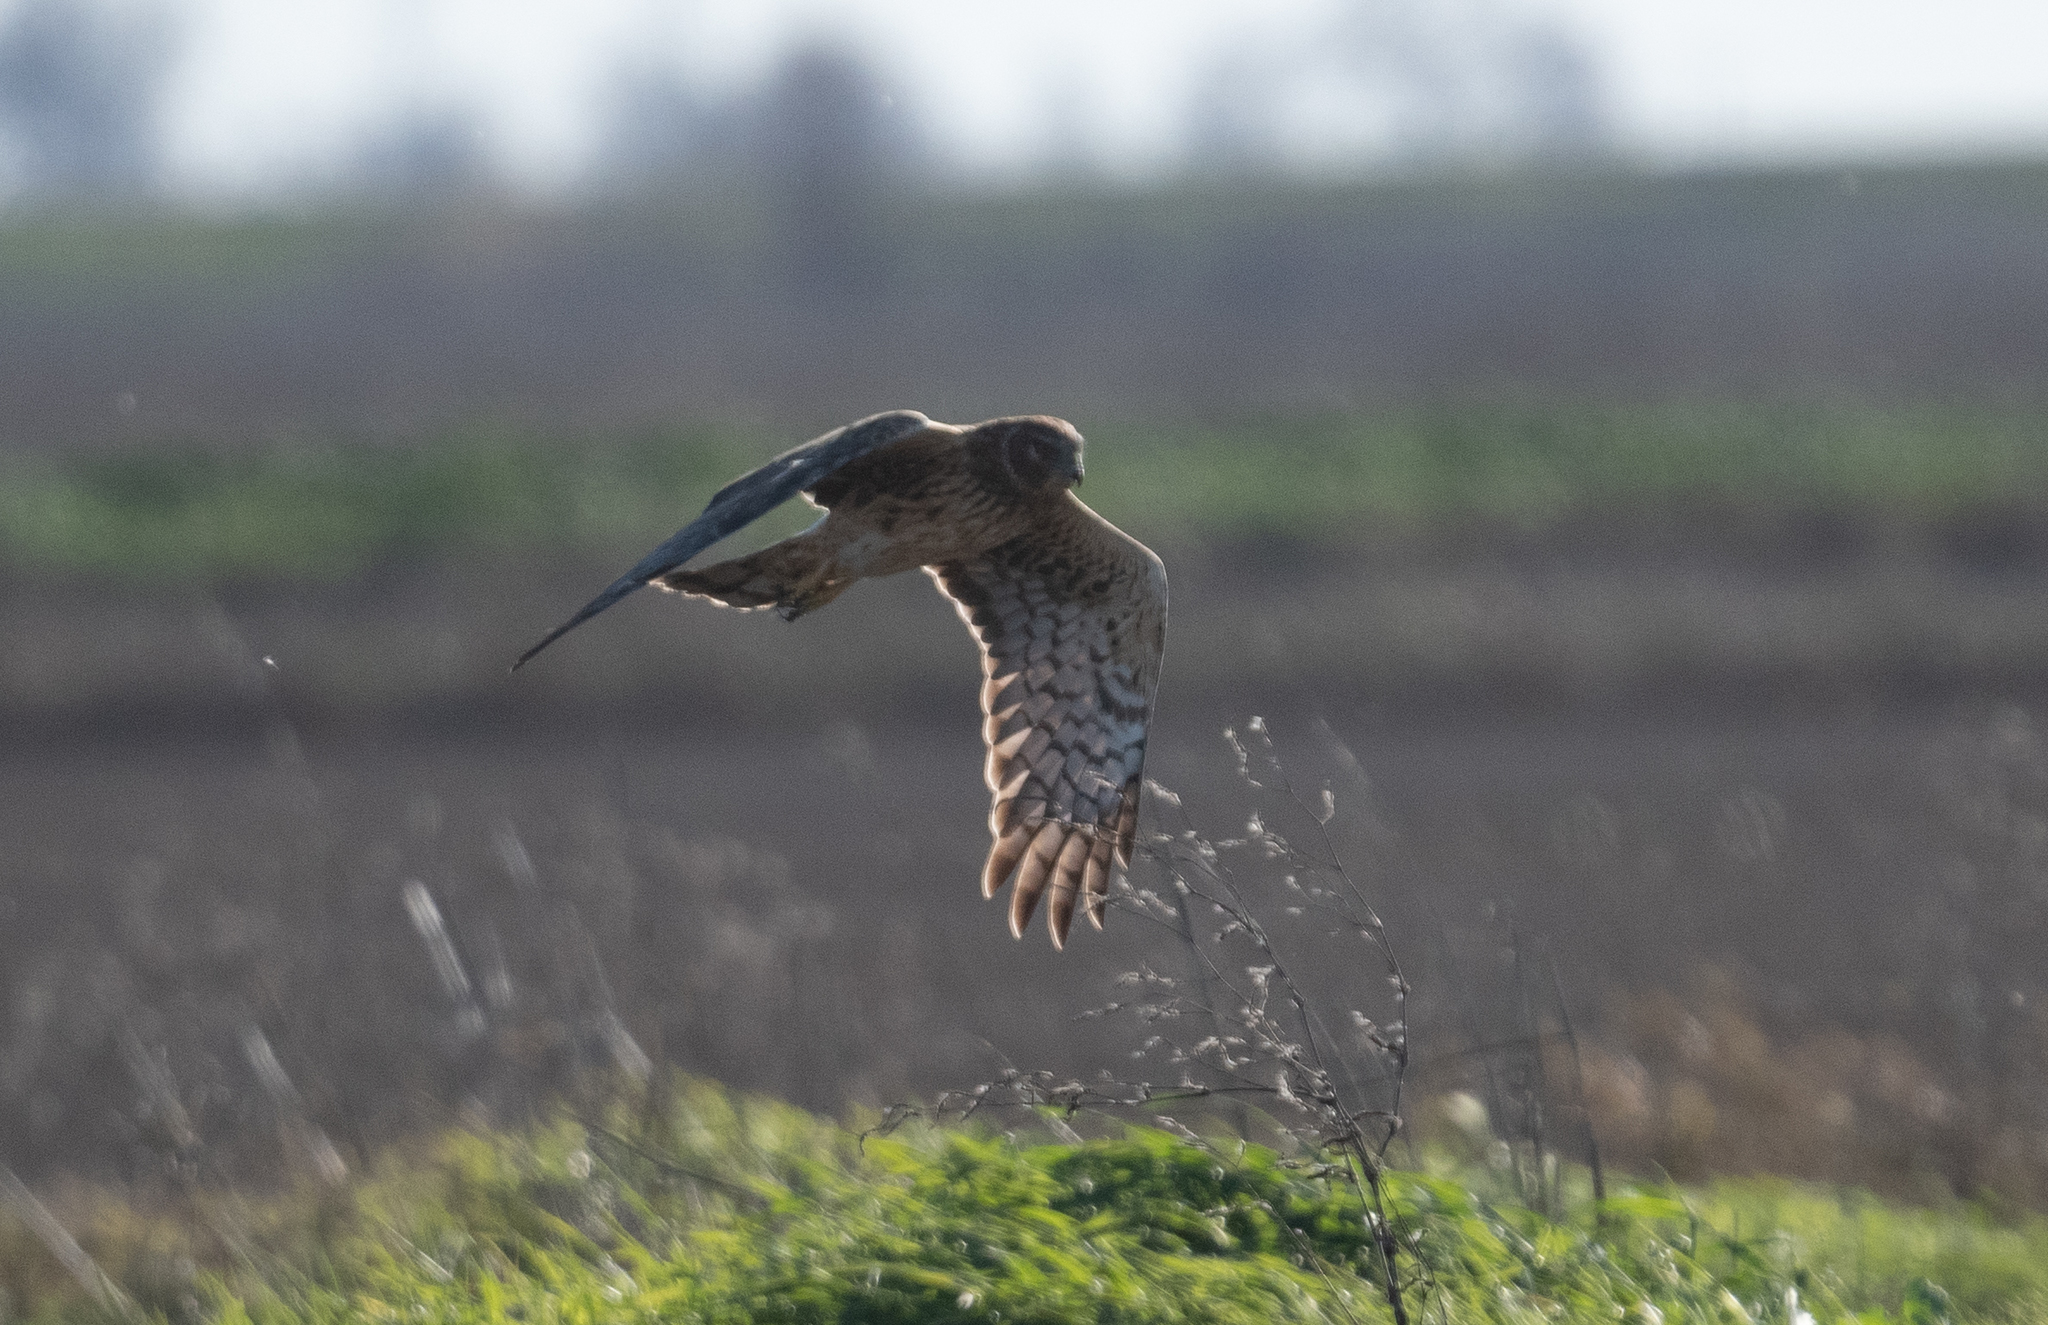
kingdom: Animalia
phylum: Chordata
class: Aves
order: Accipitriformes
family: Accipitridae
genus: Circus
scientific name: Circus cyaneus
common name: Hen harrier
